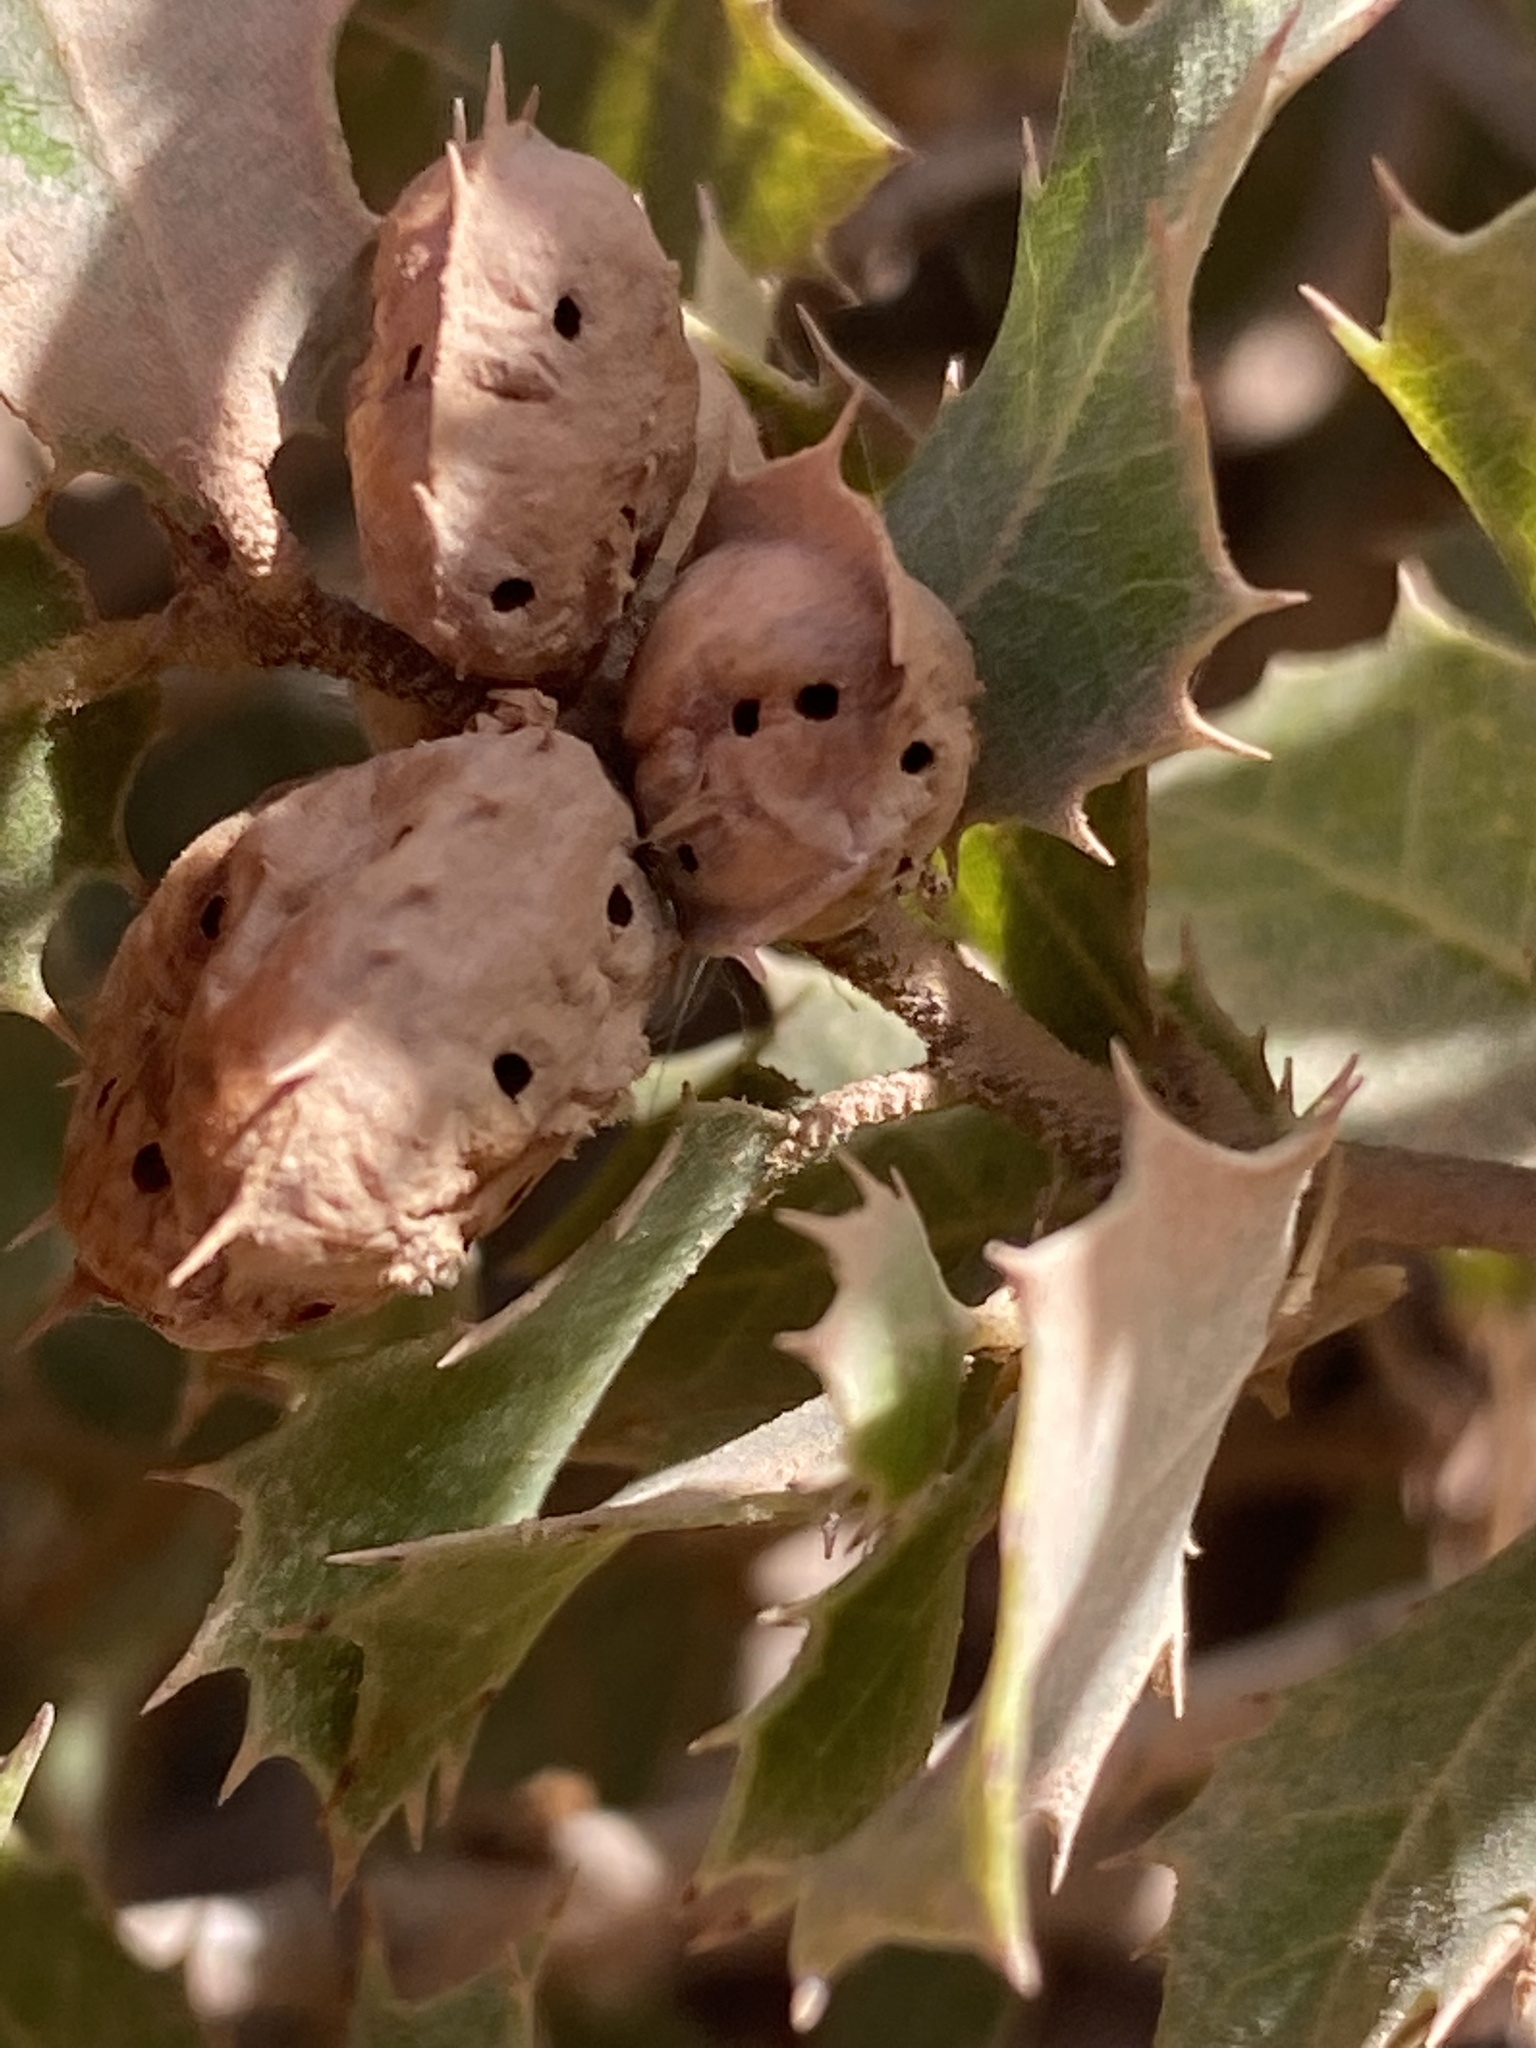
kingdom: Animalia
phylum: Arthropoda
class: Insecta
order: Hymenoptera
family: Cynipidae
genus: Plagiotrochus
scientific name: Plagiotrochus quercusilicis
